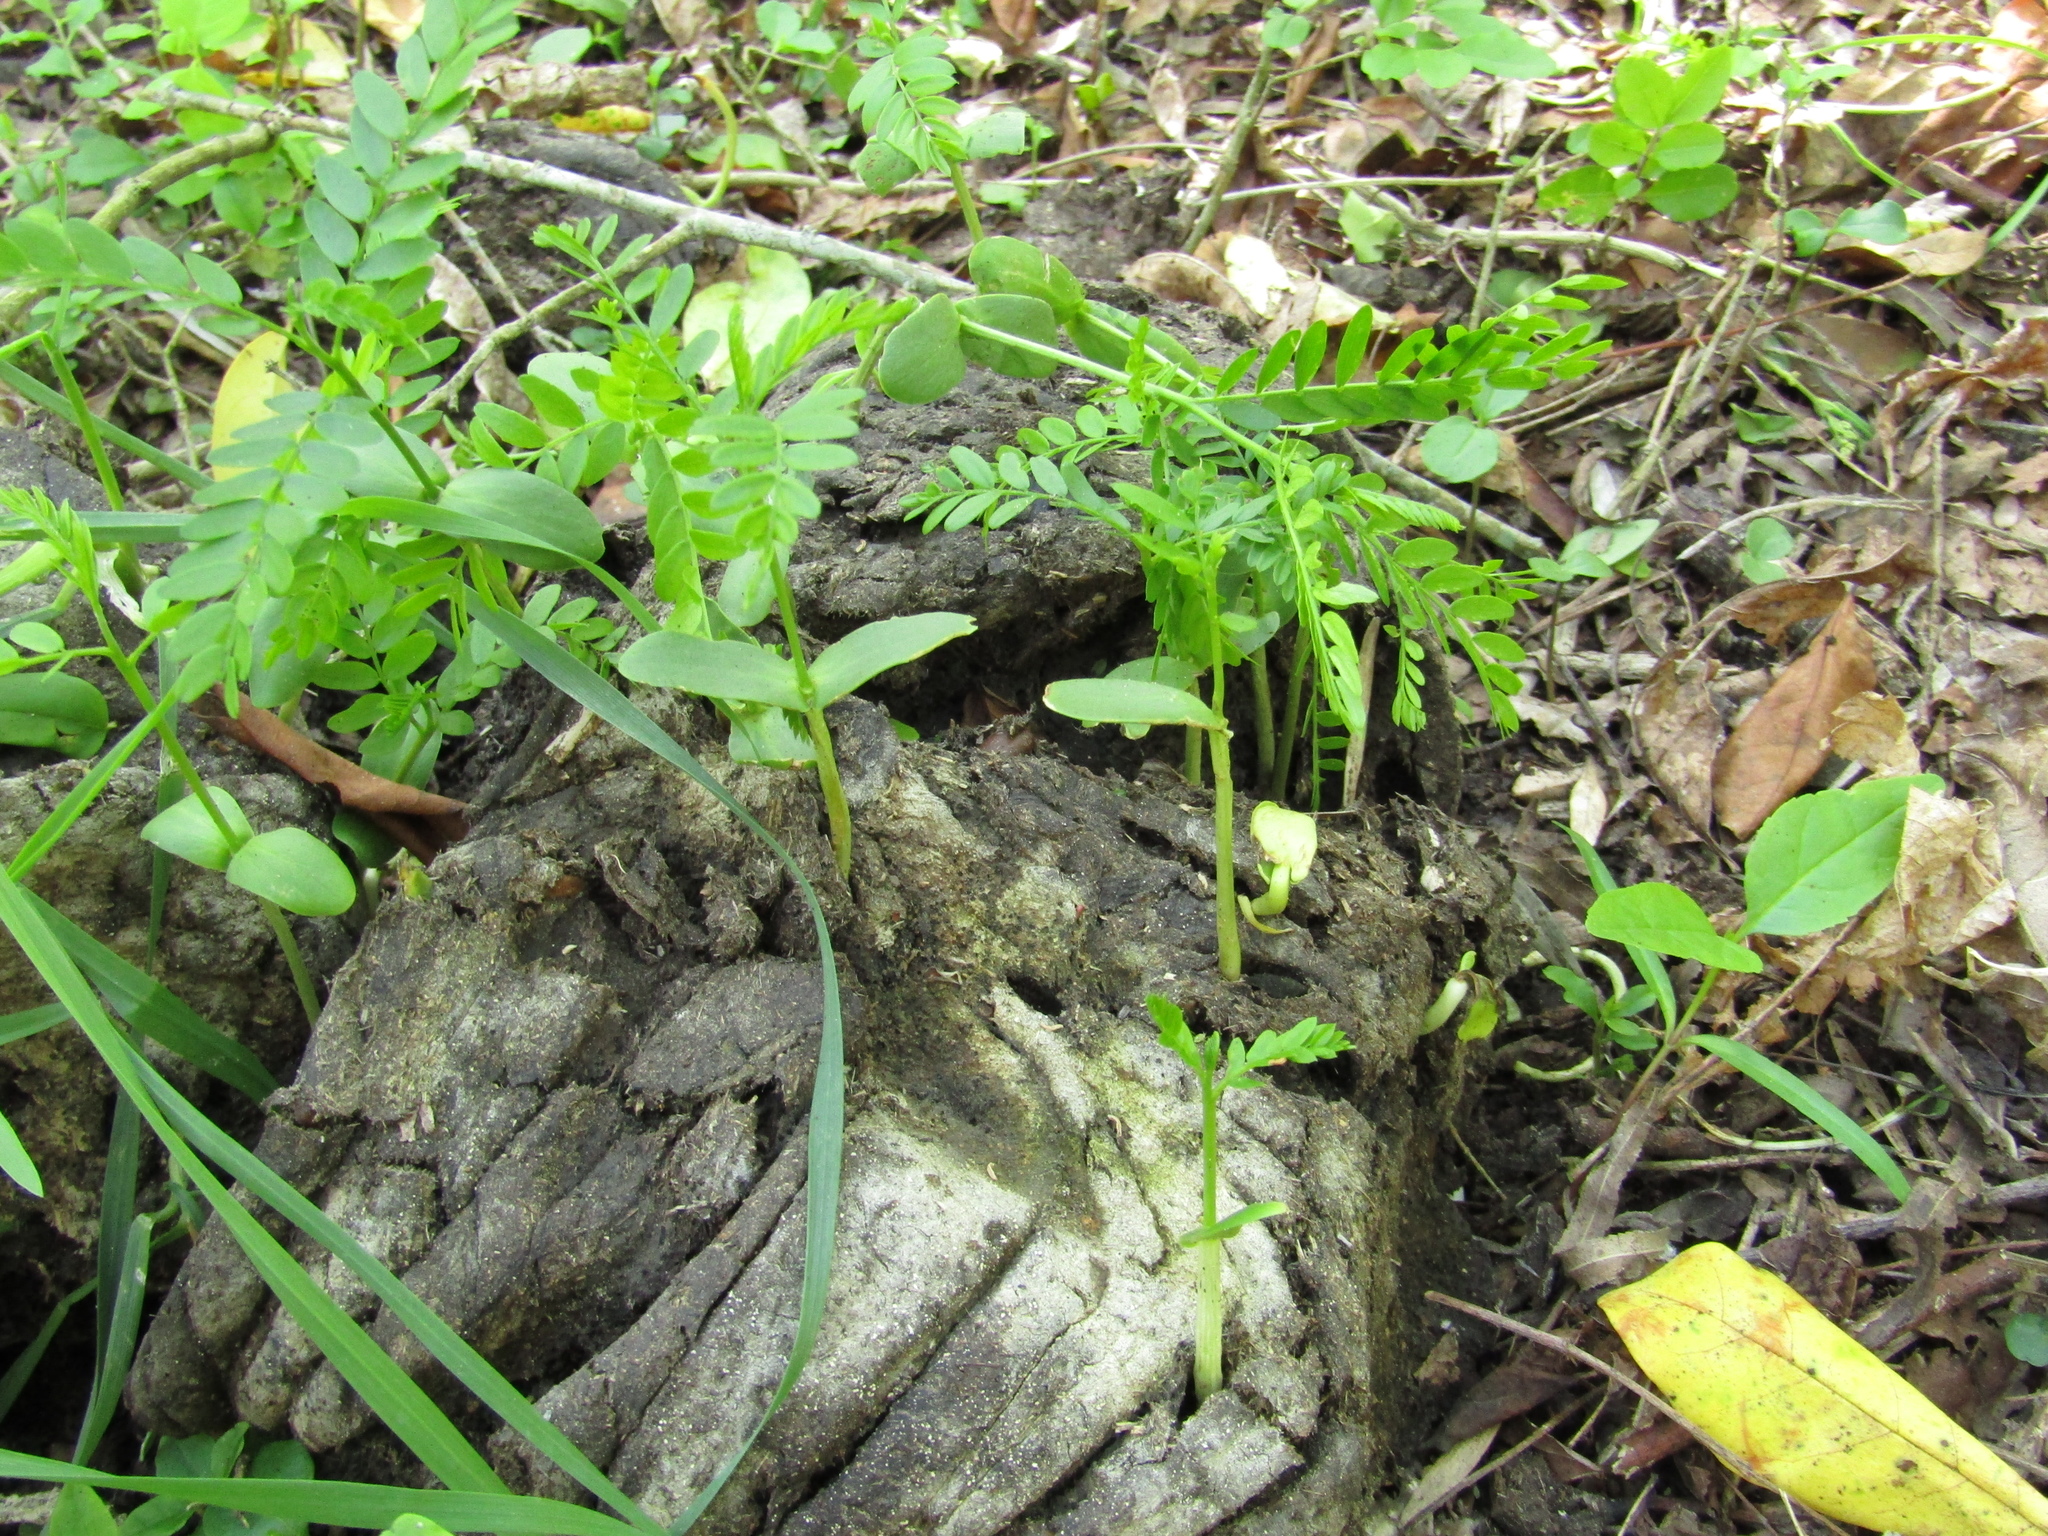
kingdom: Plantae
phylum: Tracheophyta
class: Magnoliopsida
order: Fabales
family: Fabaceae
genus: Gleditsia
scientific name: Gleditsia triacanthos
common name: Common honeylocust
